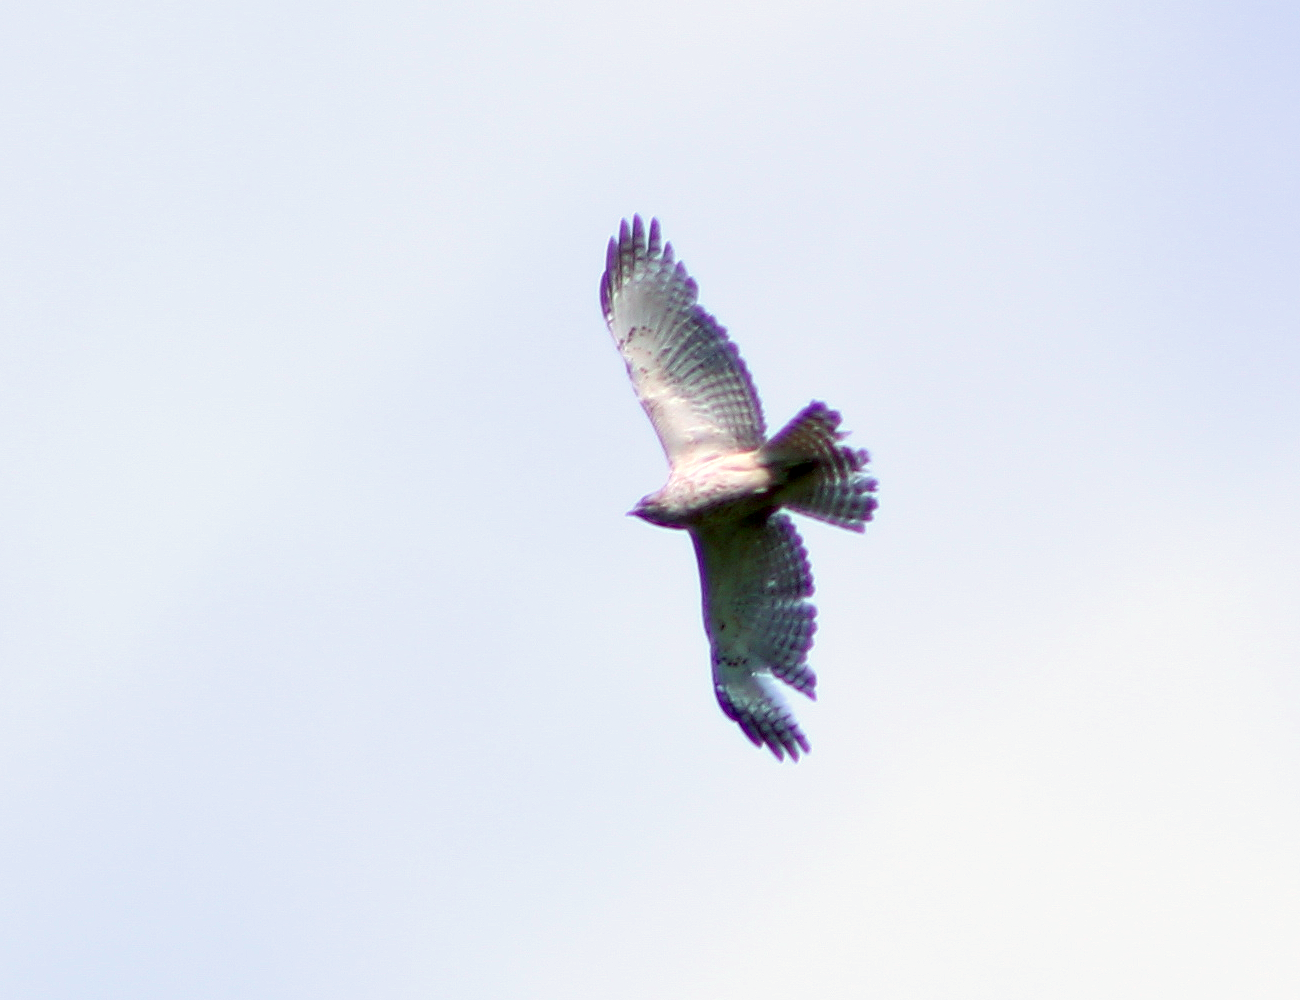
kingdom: Animalia
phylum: Chordata
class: Aves
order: Accipitriformes
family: Accipitridae
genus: Buteo
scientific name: Buteo lineatus
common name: Red-shouldered hawk
